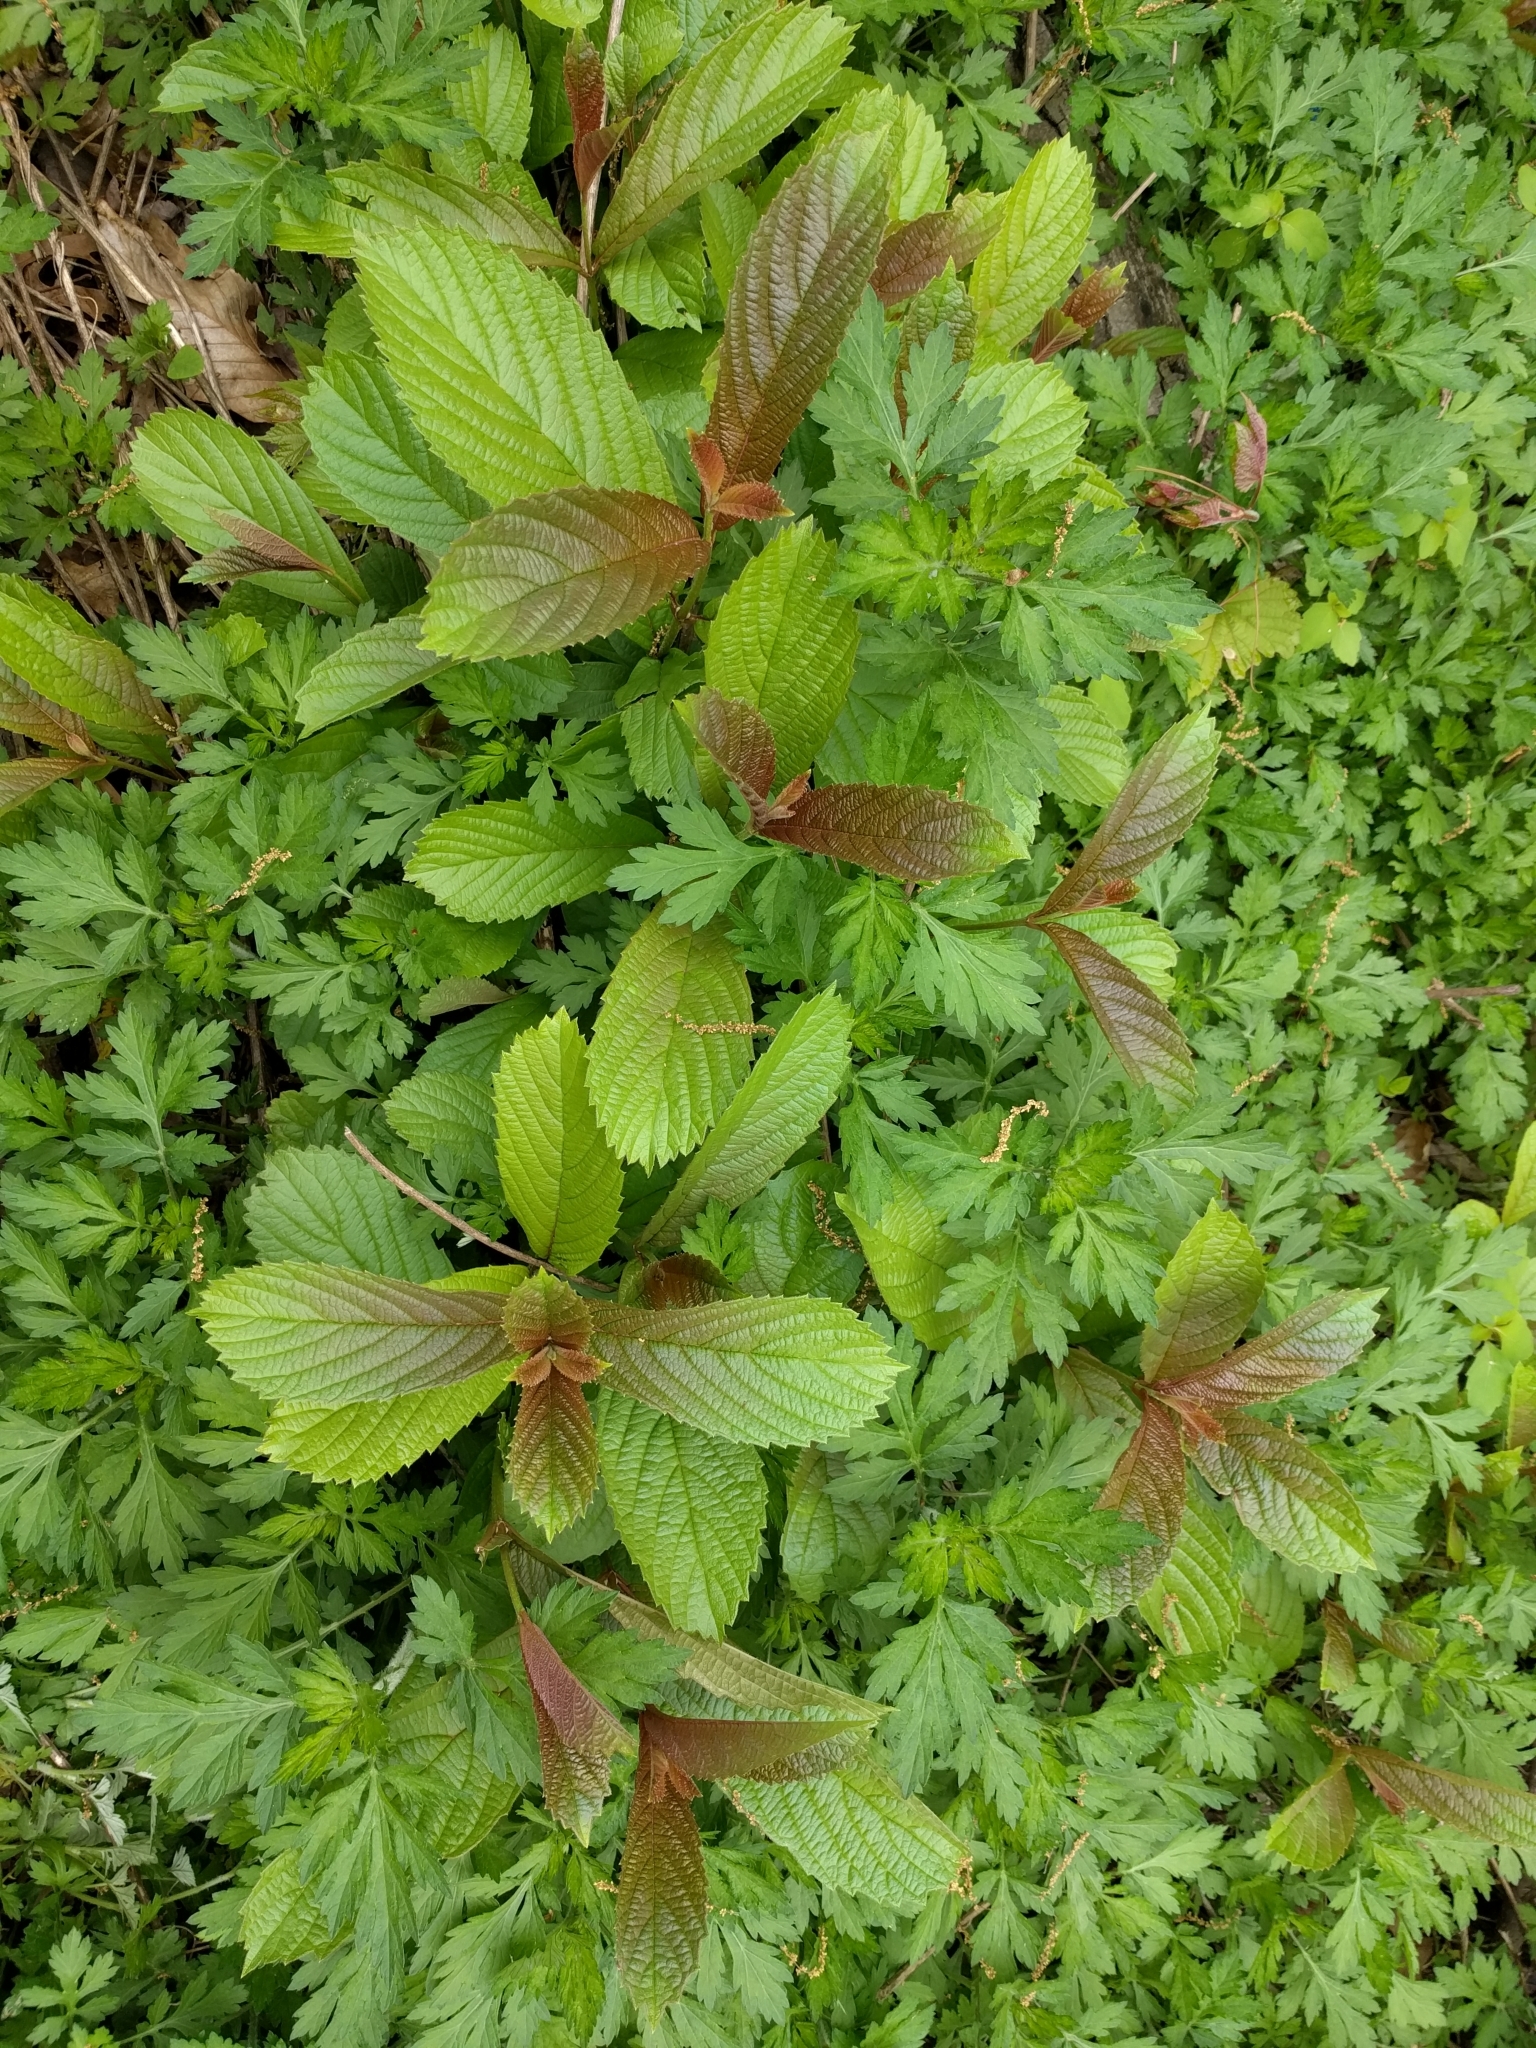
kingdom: Plantae
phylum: Tracheophyta
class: Magnoliopsida
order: Dipsacales
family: Viburnaceae
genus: Viburnum
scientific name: Viburnum sieboldii
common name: Siebold's arrowwood
